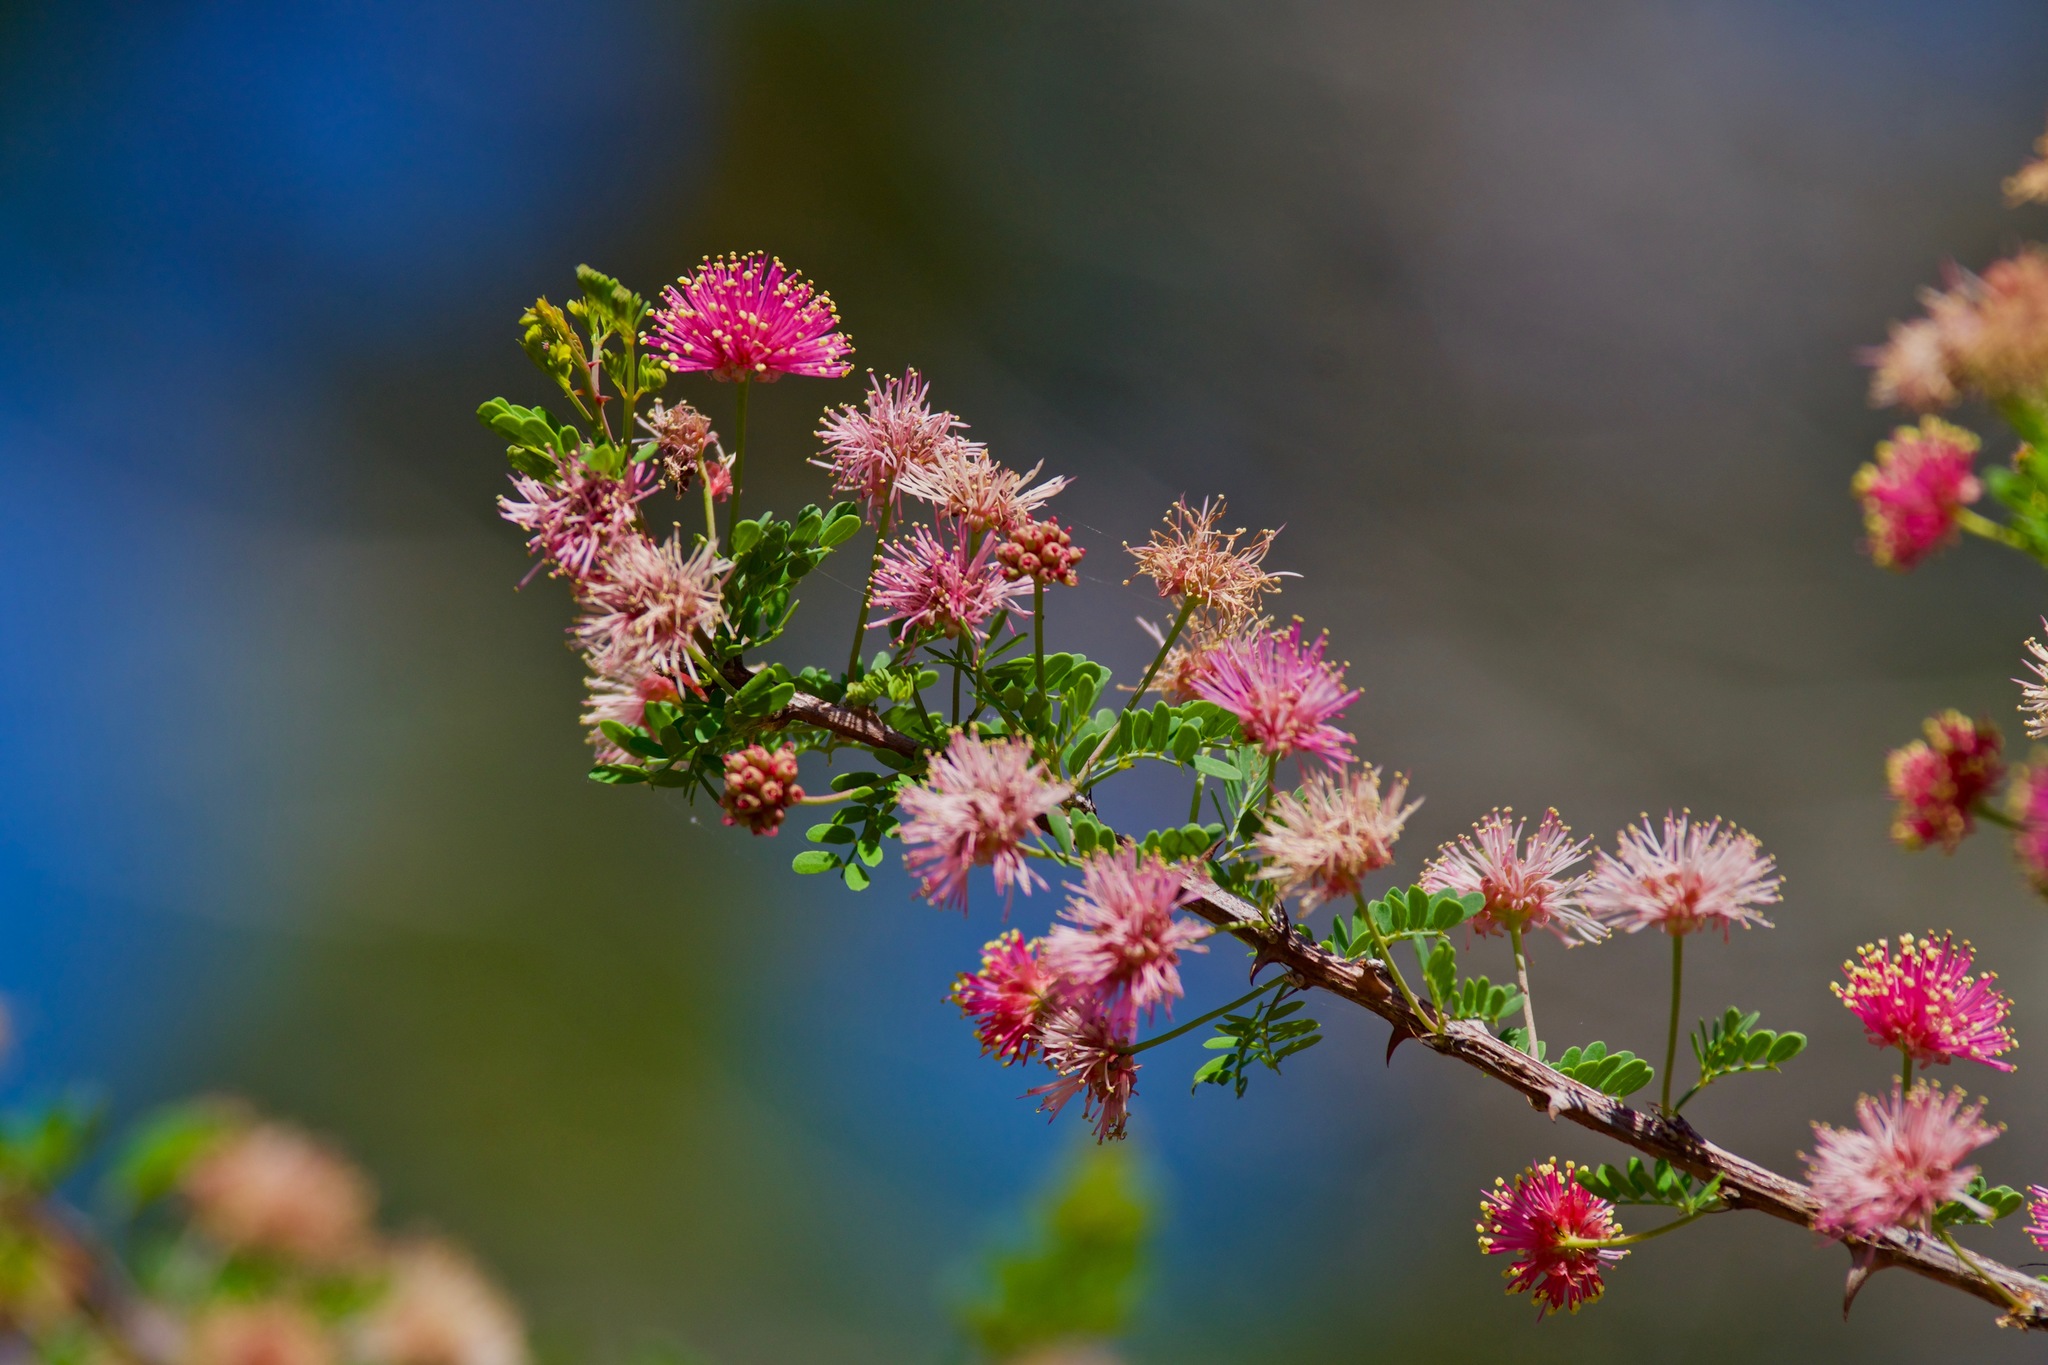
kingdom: Plantae
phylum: Tracheophyta
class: Magnoliopsida
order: Fabales
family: Fabaceae
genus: Mimosa
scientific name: Mimosa texana
